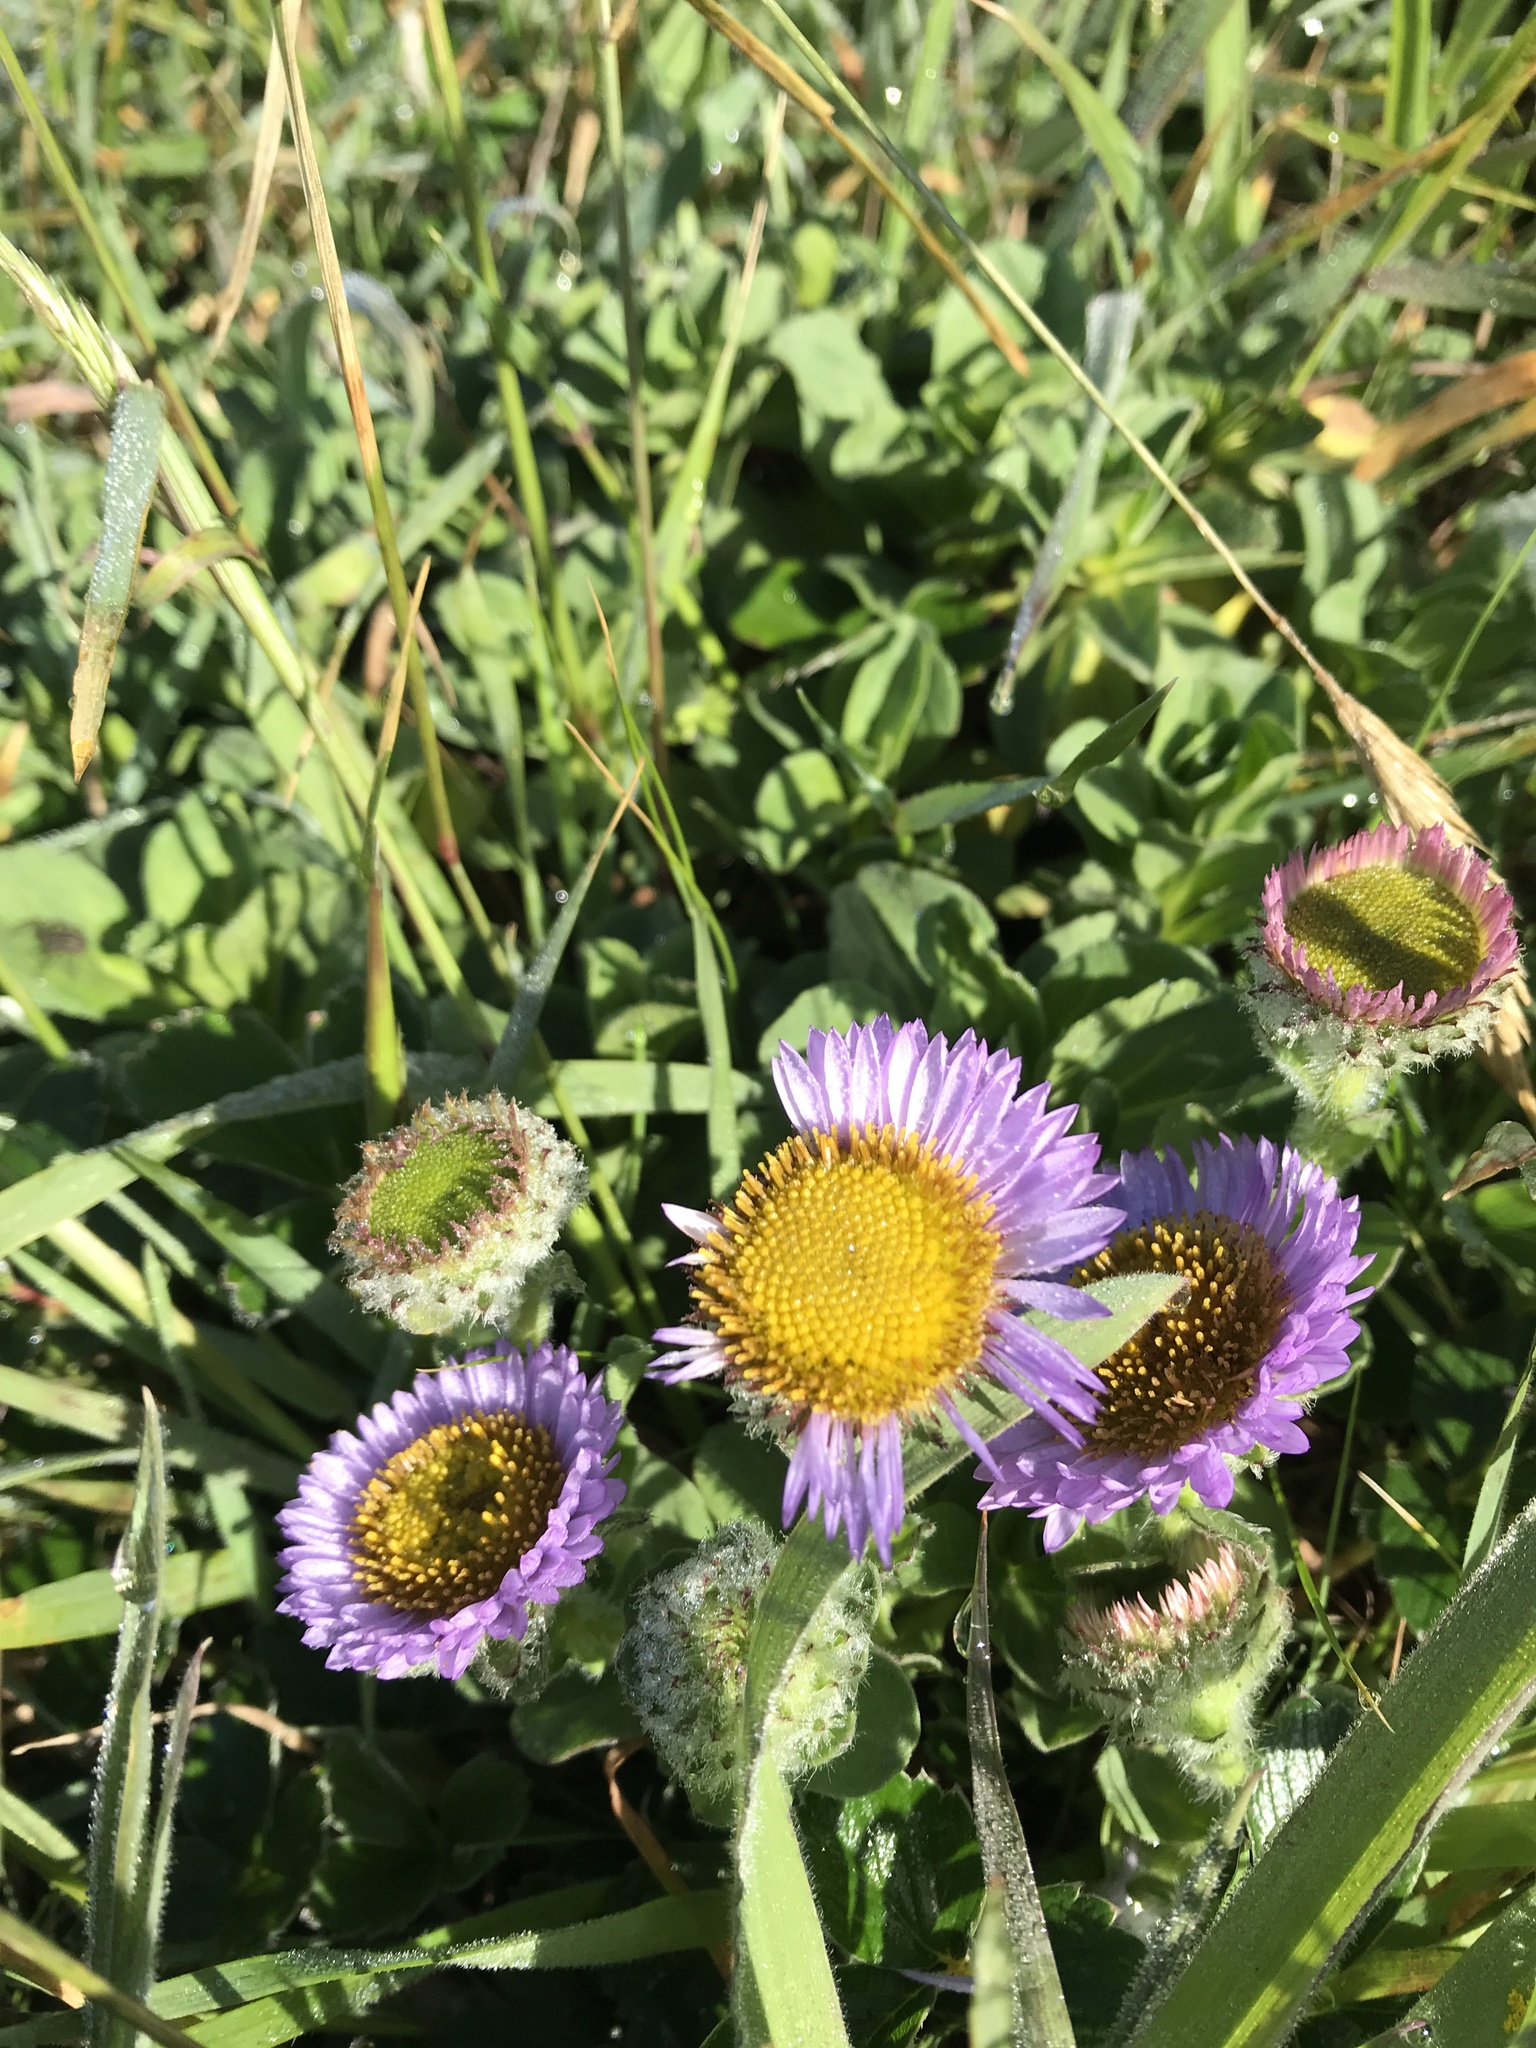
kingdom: Plantae
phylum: Tracheophyta
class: Magnoliopsida
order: Asterales
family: Asteraceae
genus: Erigeron
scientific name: Erigeron glaucus
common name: Seaside daisy
